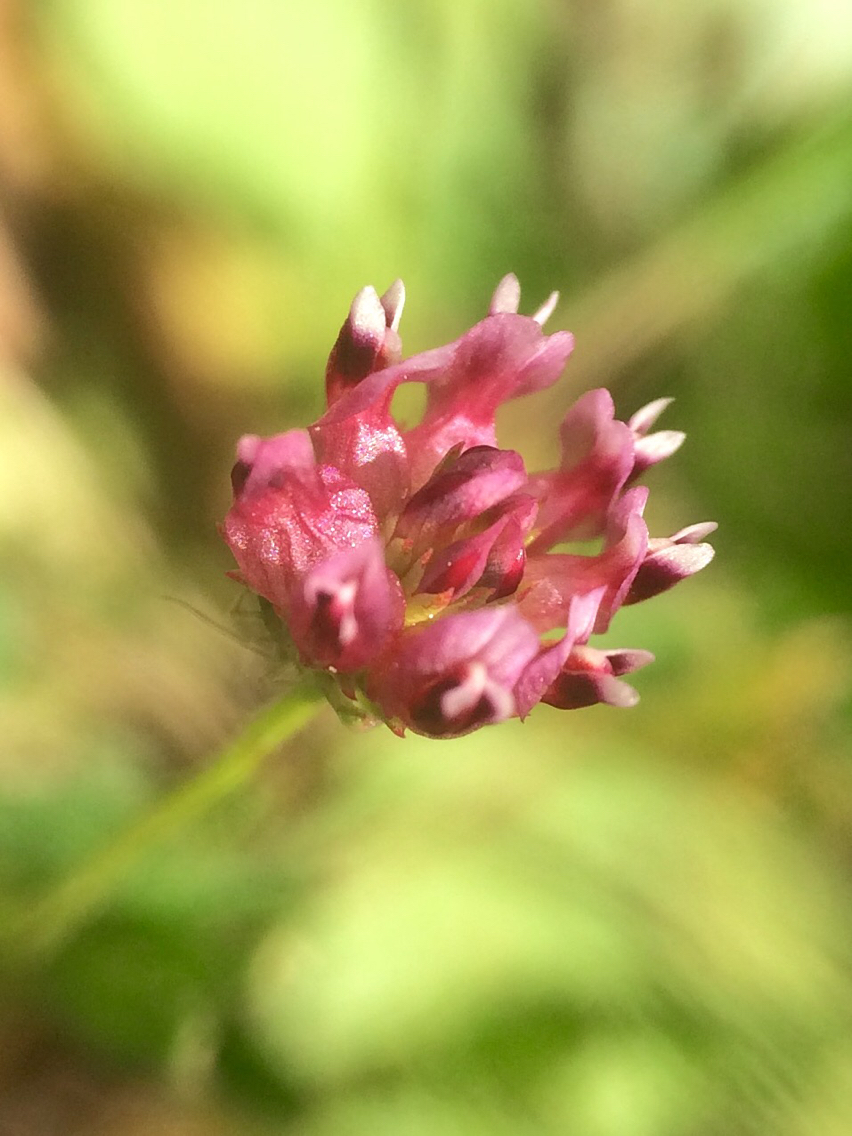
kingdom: Plantae
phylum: Tracheophyta
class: Magnoliopsida
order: Fabales
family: Fabaceae
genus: Trifolium
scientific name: Trifolium depauperatum
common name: Poverty clover
